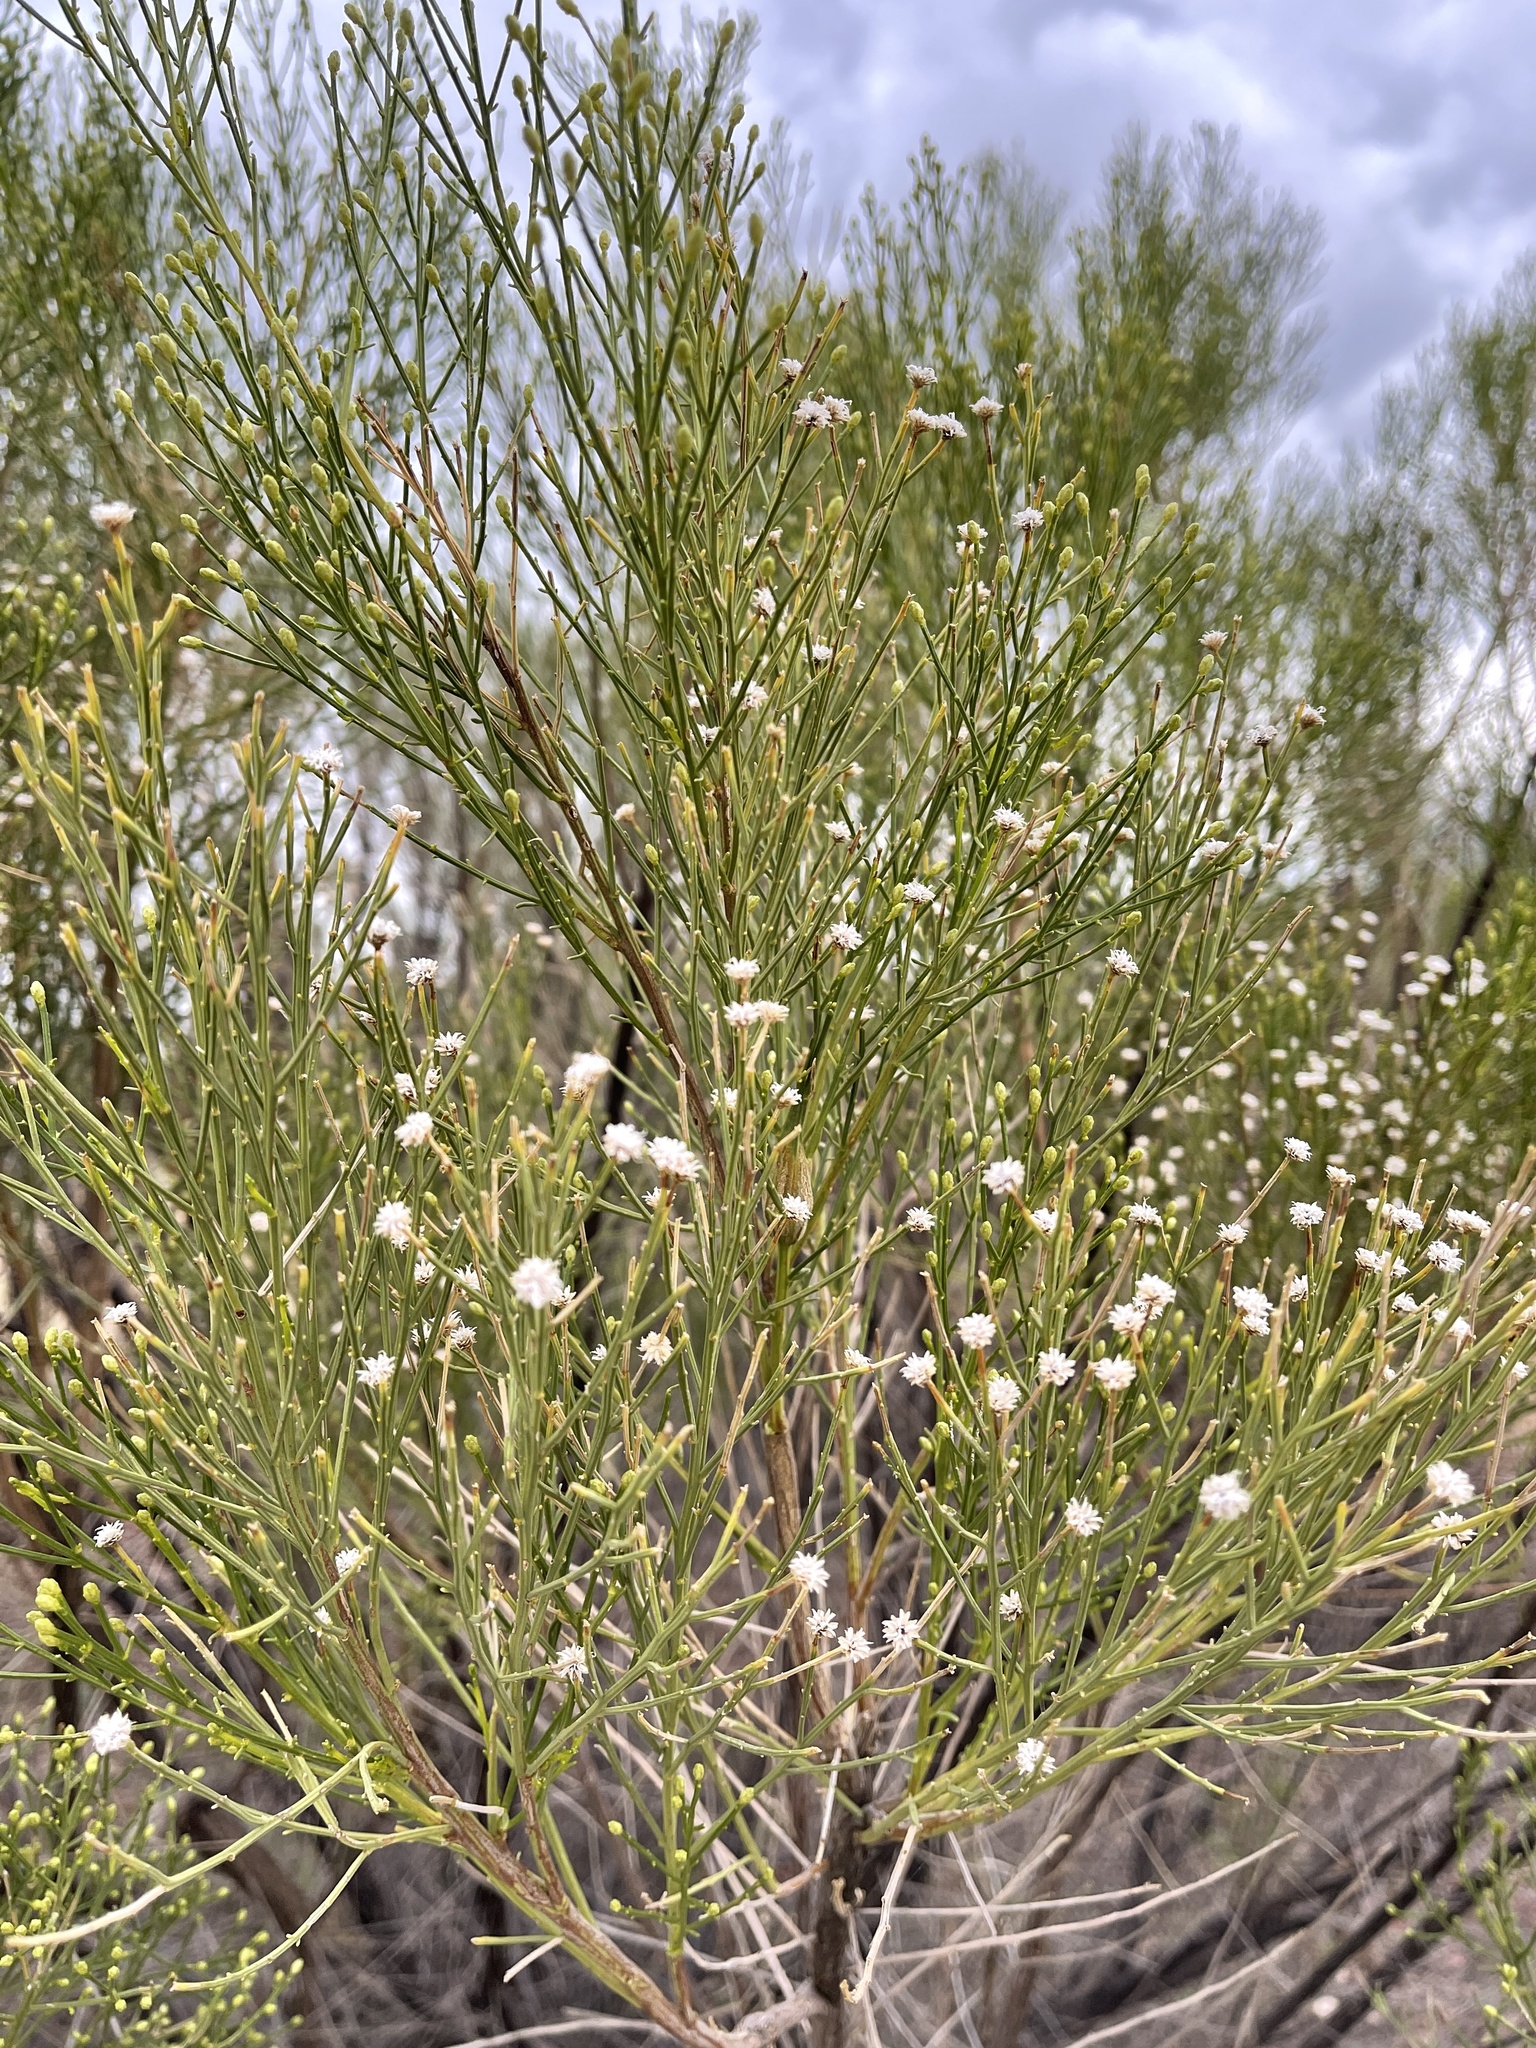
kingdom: Plantae
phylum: Tracheophyta
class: Magnoliopsida
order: Asterales
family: Asteraceae
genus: Baccharis
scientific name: Baccharis sarothroides
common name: Desert-broom
